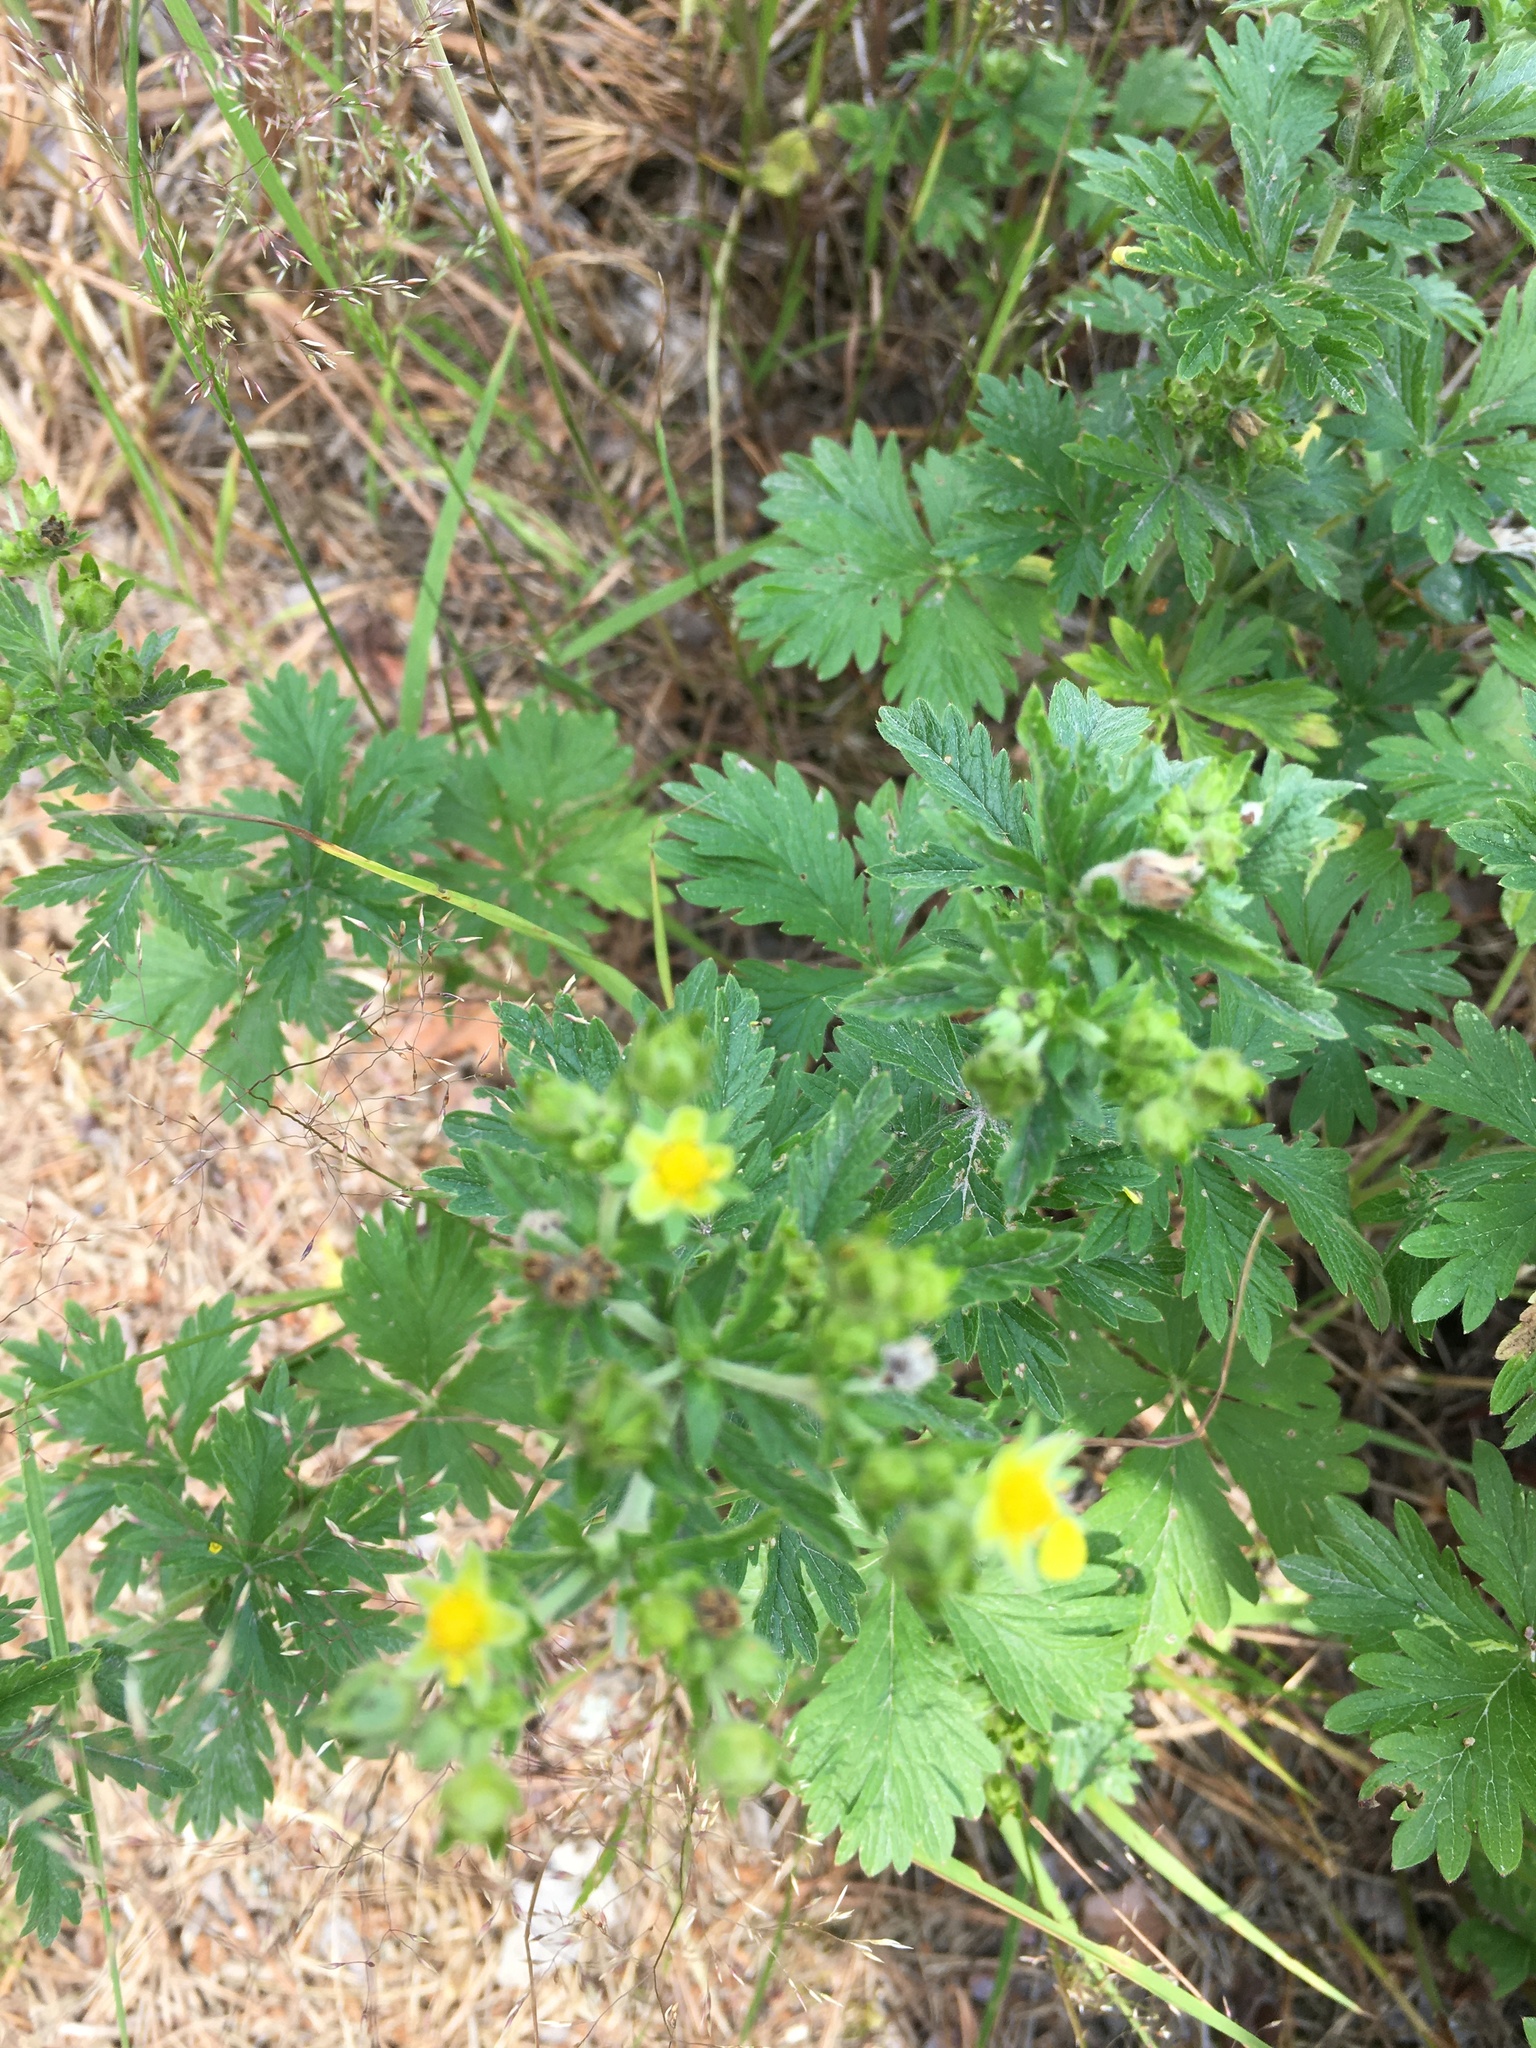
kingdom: Plantae
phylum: Tracheophyta
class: Magnoliopsida
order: Rosales
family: Rosaceae
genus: Potentilla
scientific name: Potentilla intermedia
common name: Downy cinquefoil
